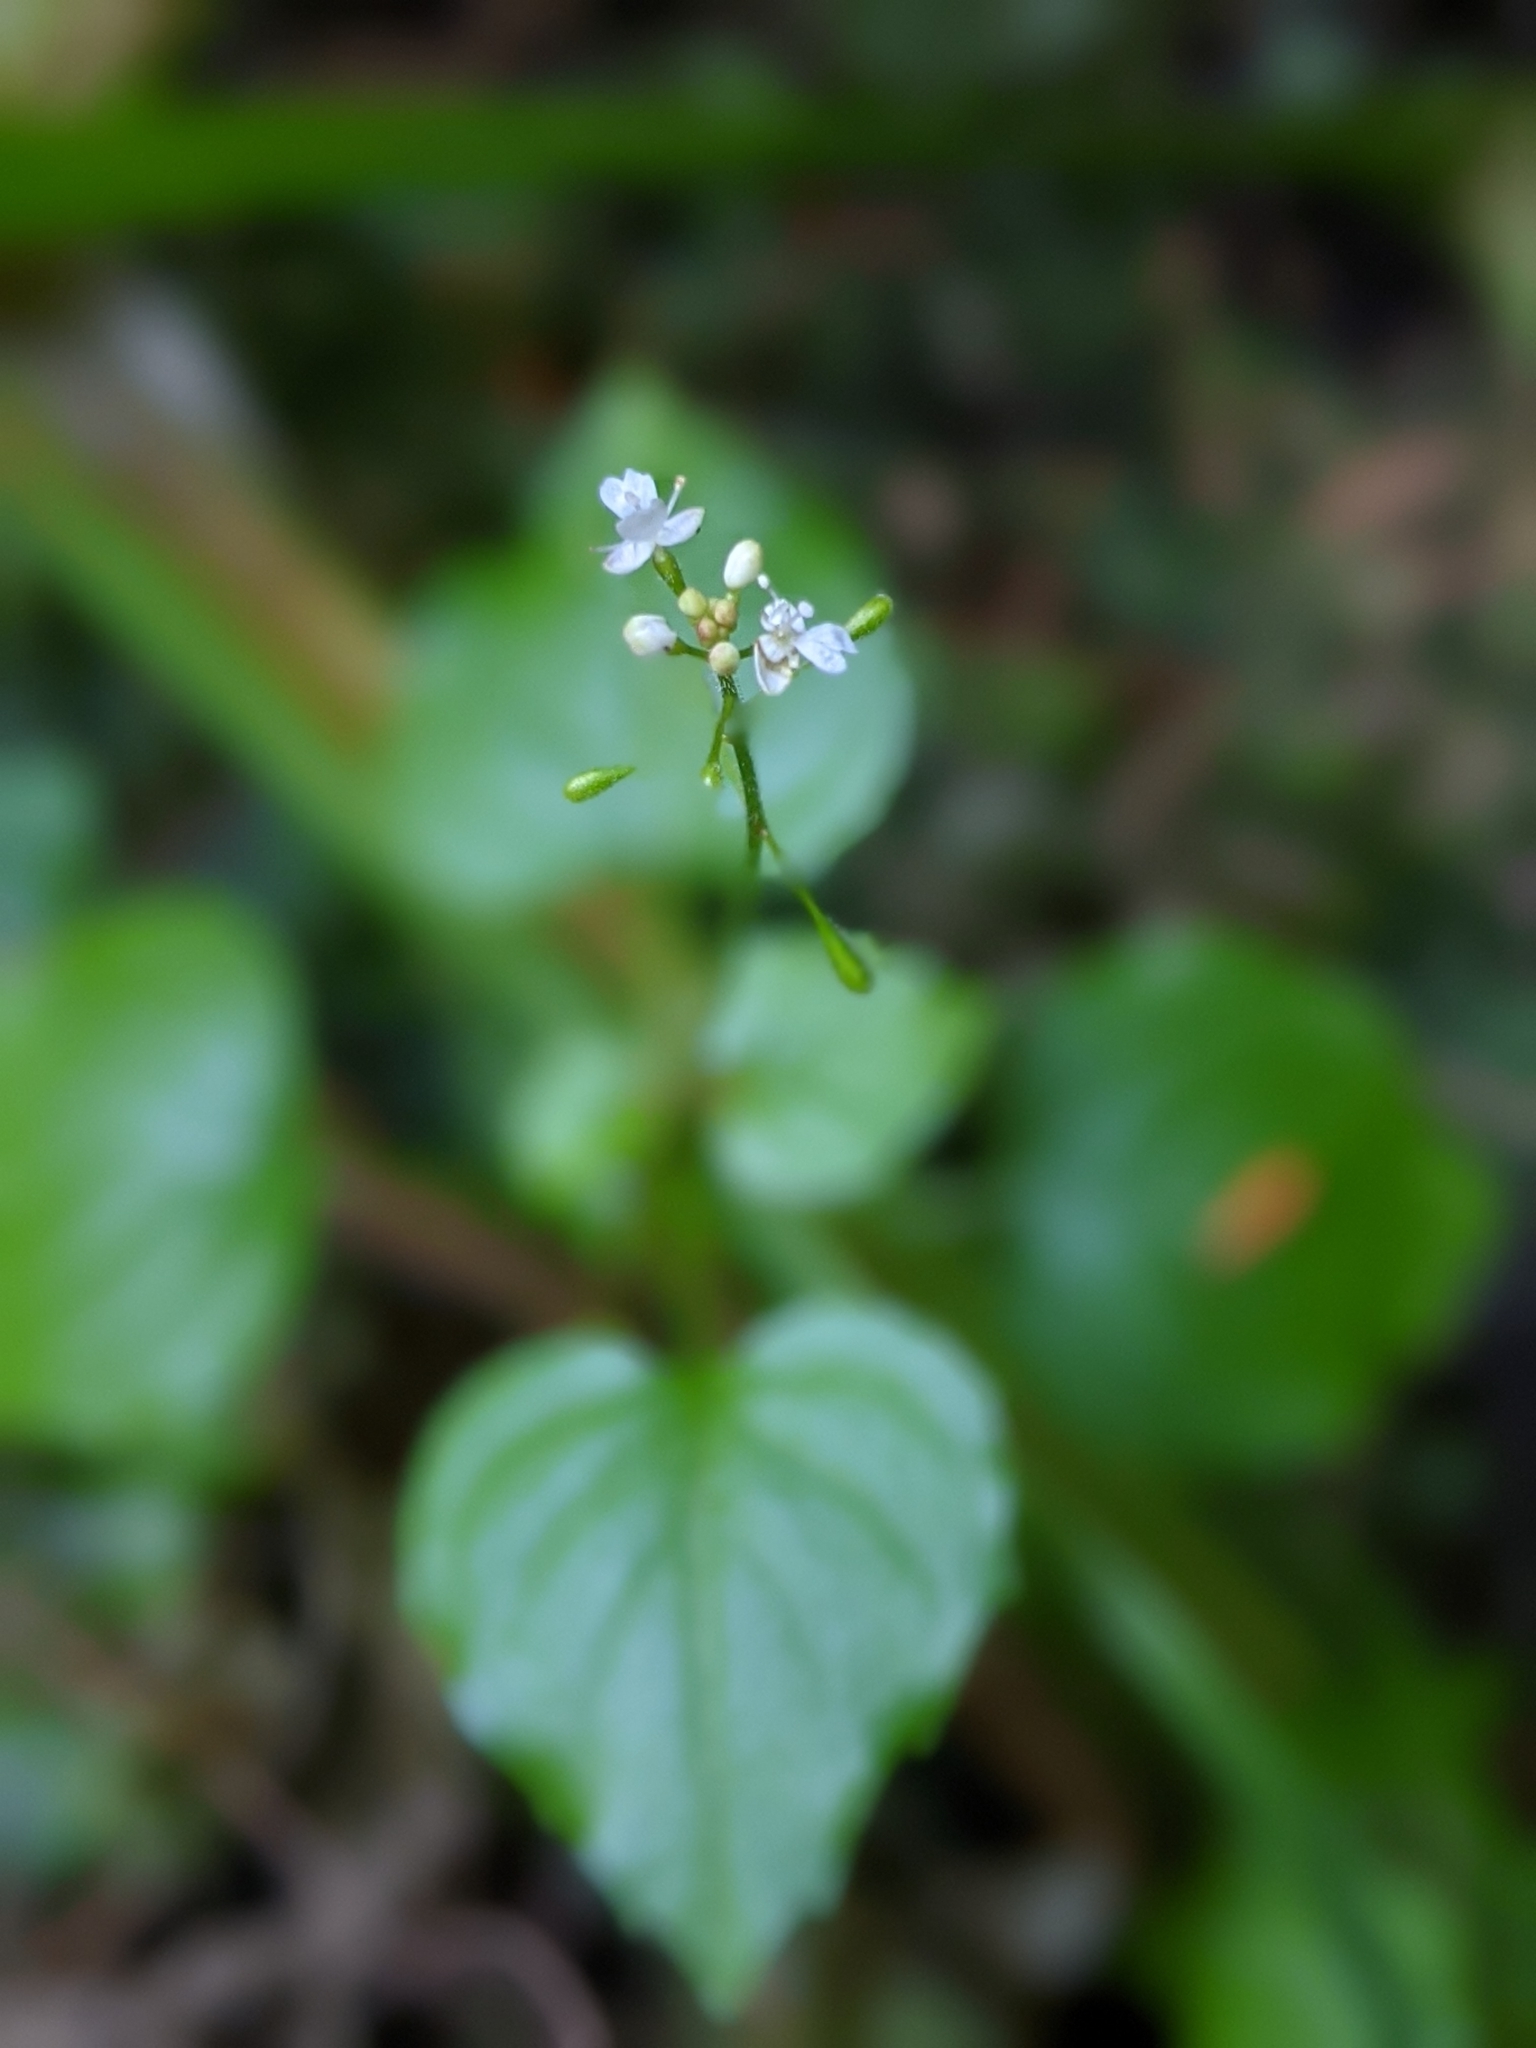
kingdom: Plantae
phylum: Tracheophyta
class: Magnoliopsida
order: Myrtales
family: Onagraceae
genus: Circaea
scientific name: Circaea alpina
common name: Alpine enchanter's-nightshade
